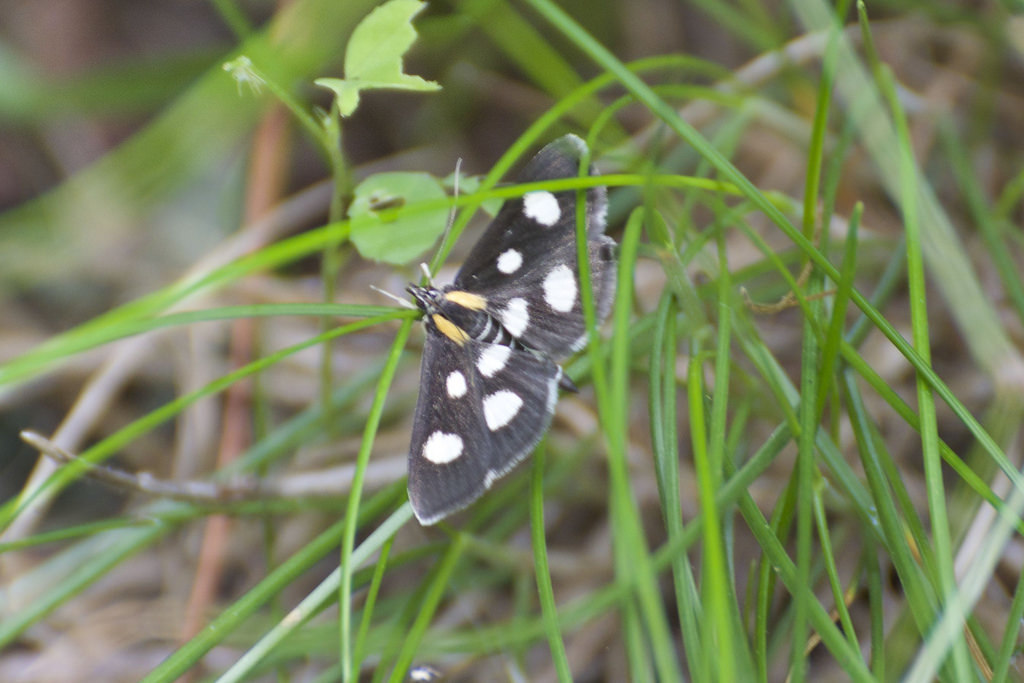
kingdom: Animalia
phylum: Arthropoda
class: Insecta
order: Lepidoptera
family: Crambidae
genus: Anania
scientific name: Anania funebris
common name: White-spotted sable moth
